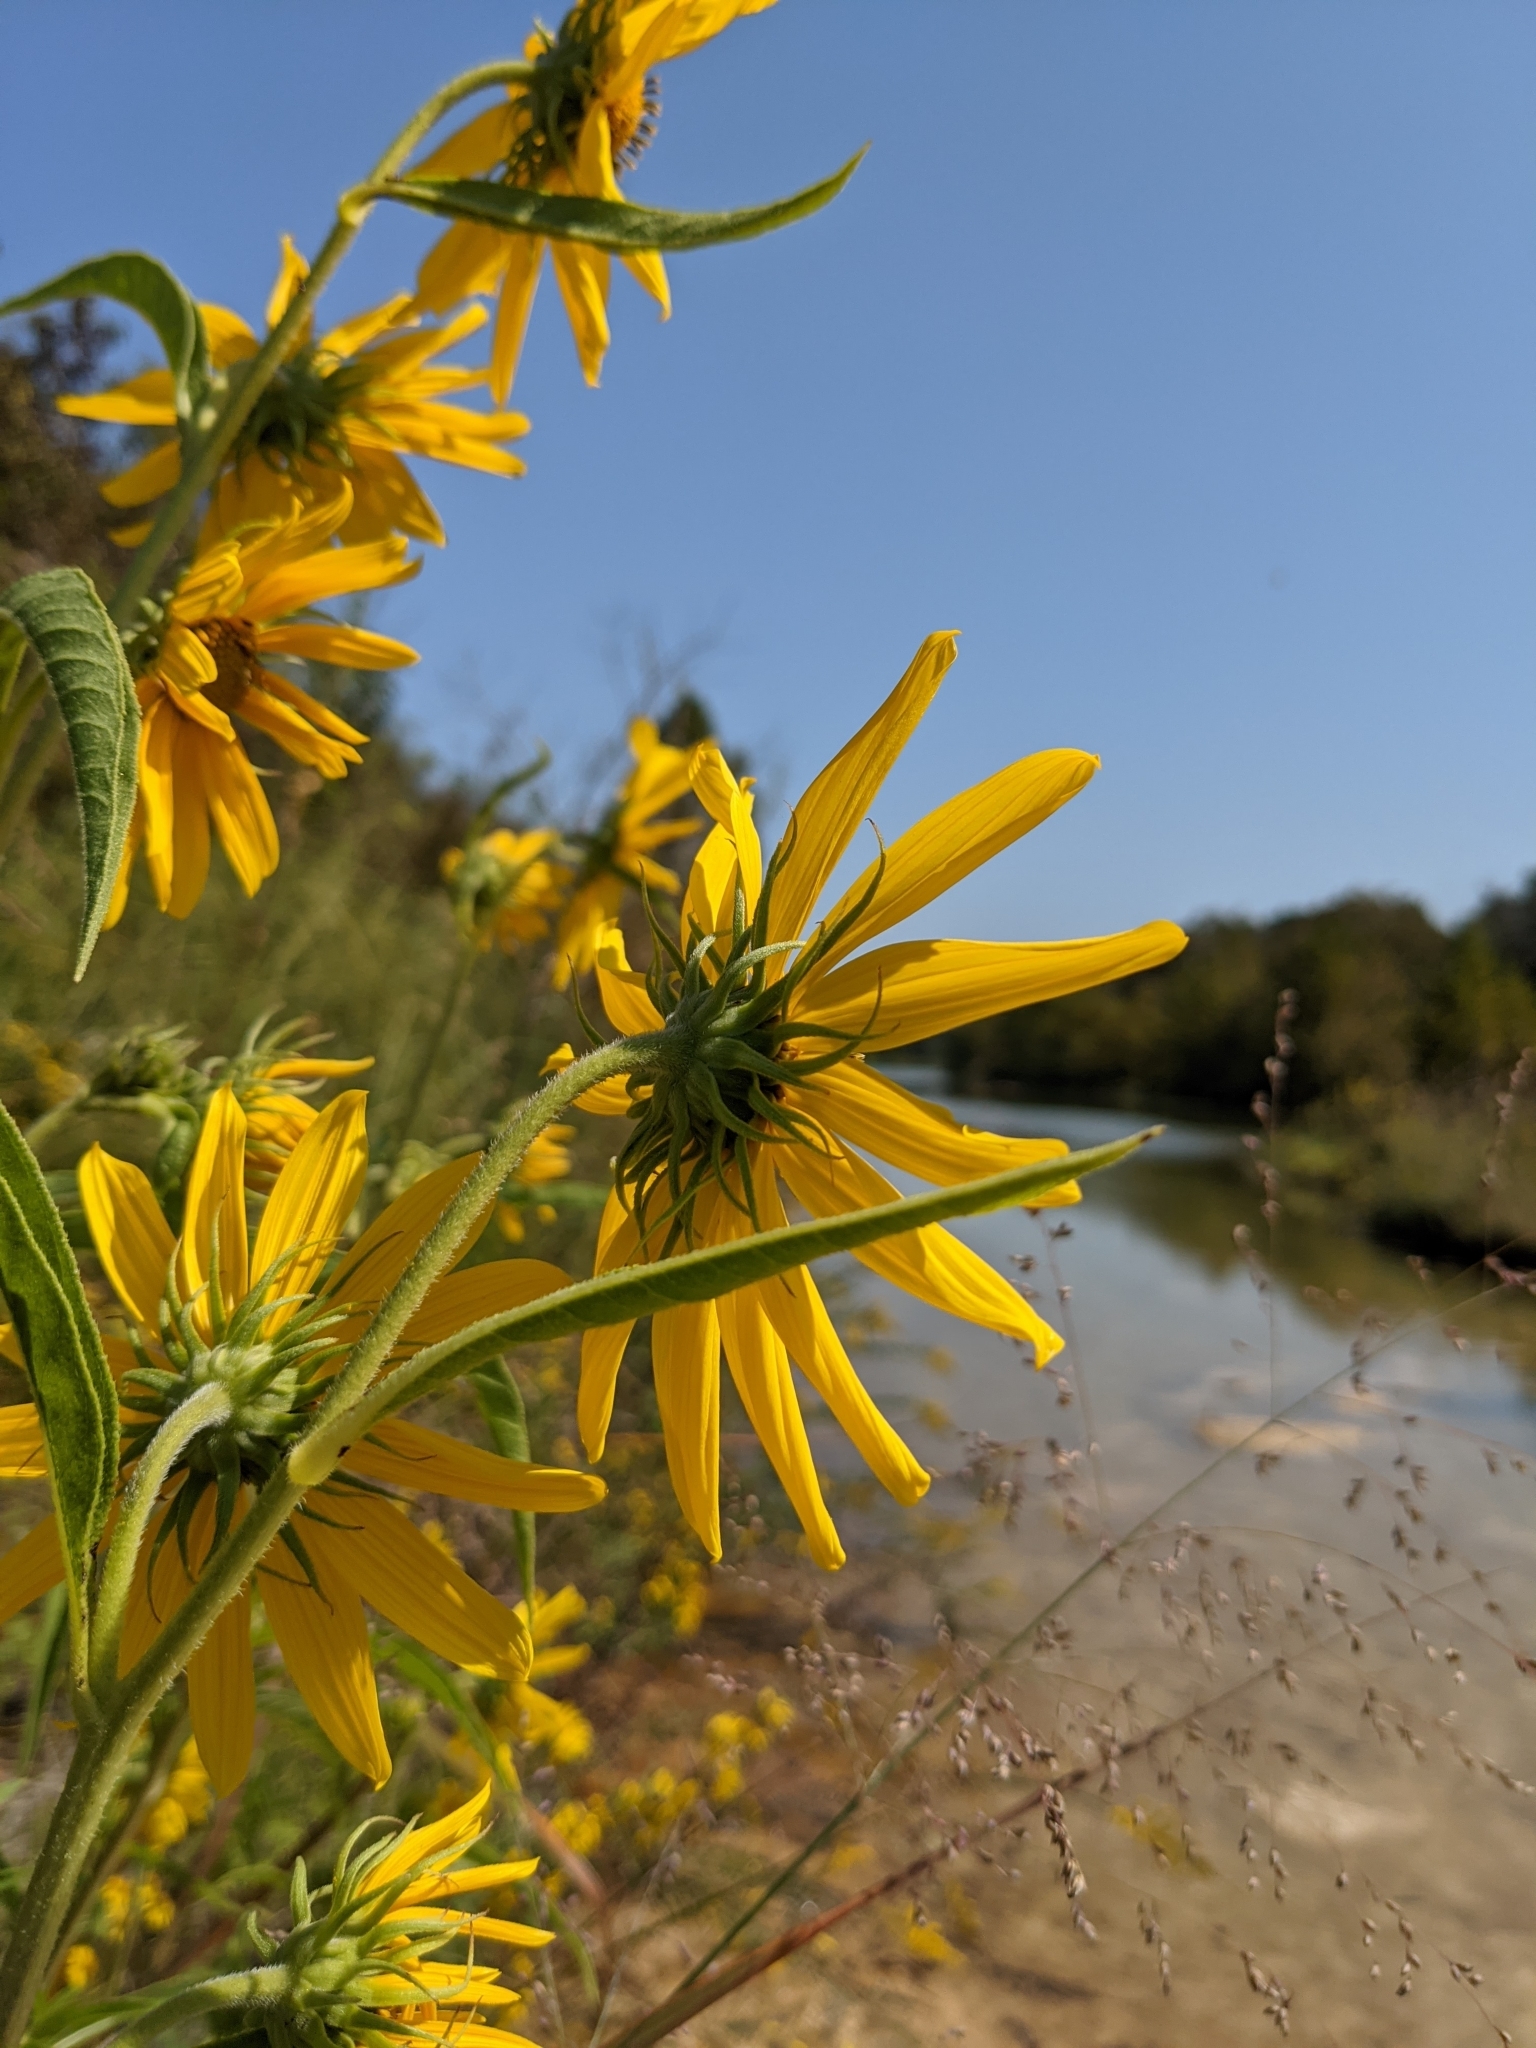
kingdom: Plantae
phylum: Tracheophyta
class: Magnoliopsida
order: Asterales
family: Asteraceae
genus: Helianthus
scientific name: Helianthus maximiliani
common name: Maximilian's sunflower
